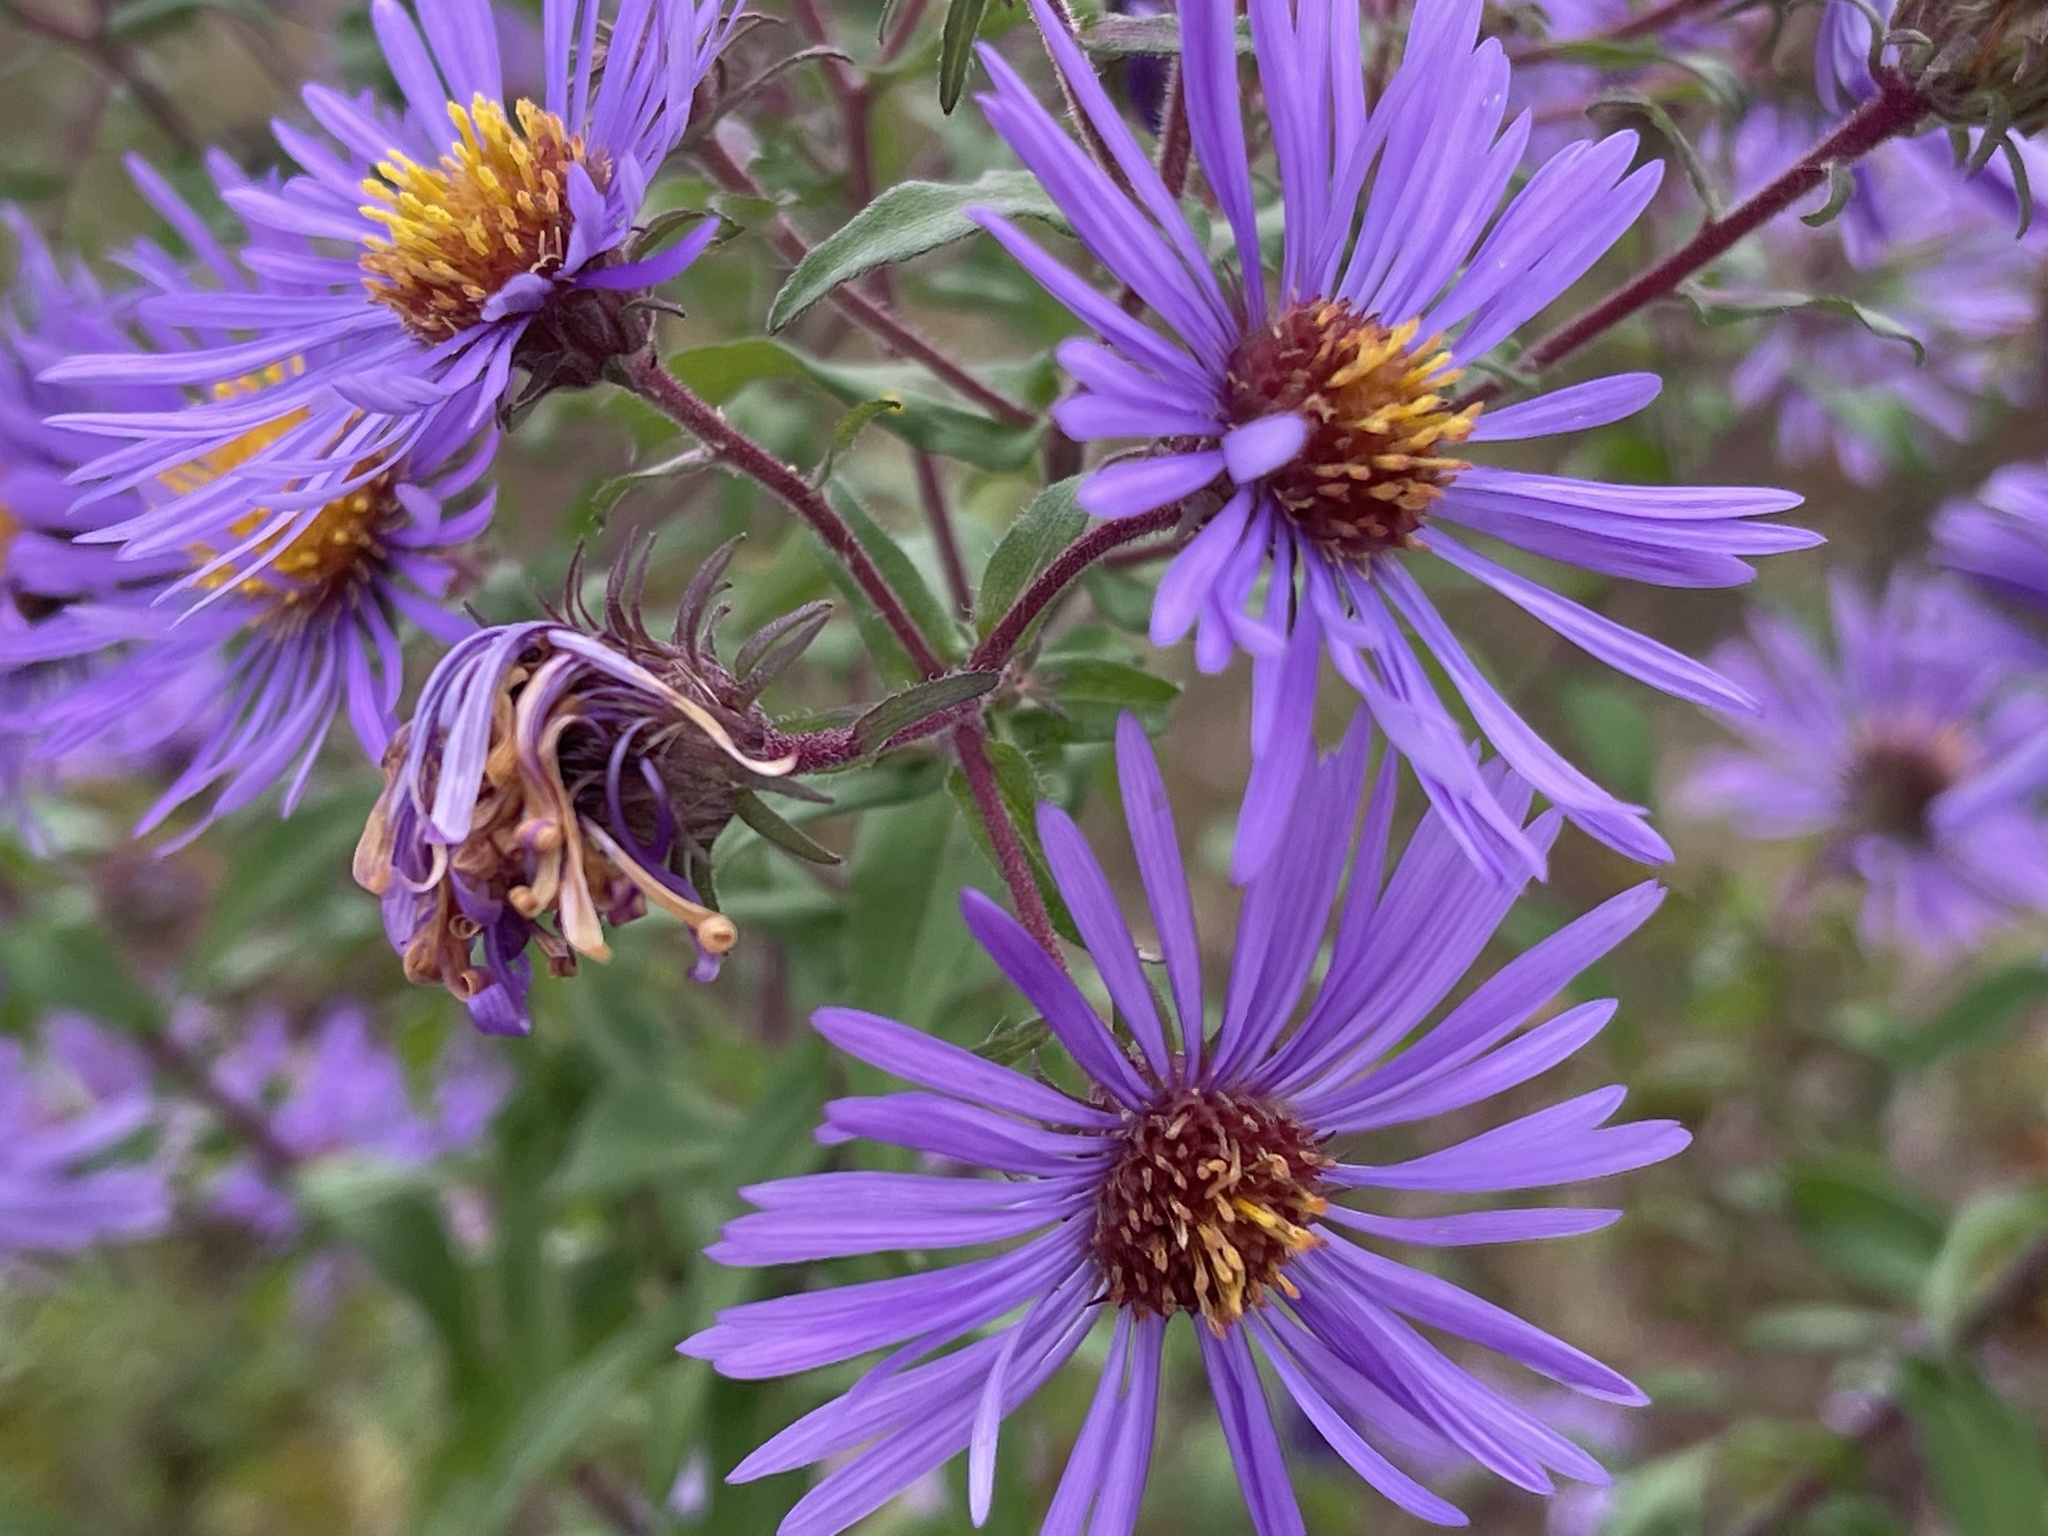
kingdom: Plantae
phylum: Tracheophyta
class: Magnoliopsida
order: Asterales
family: Asteraceae
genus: Symphyotrichum
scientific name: Symphyotrichum novae-angliae
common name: Michaelmas daisy
